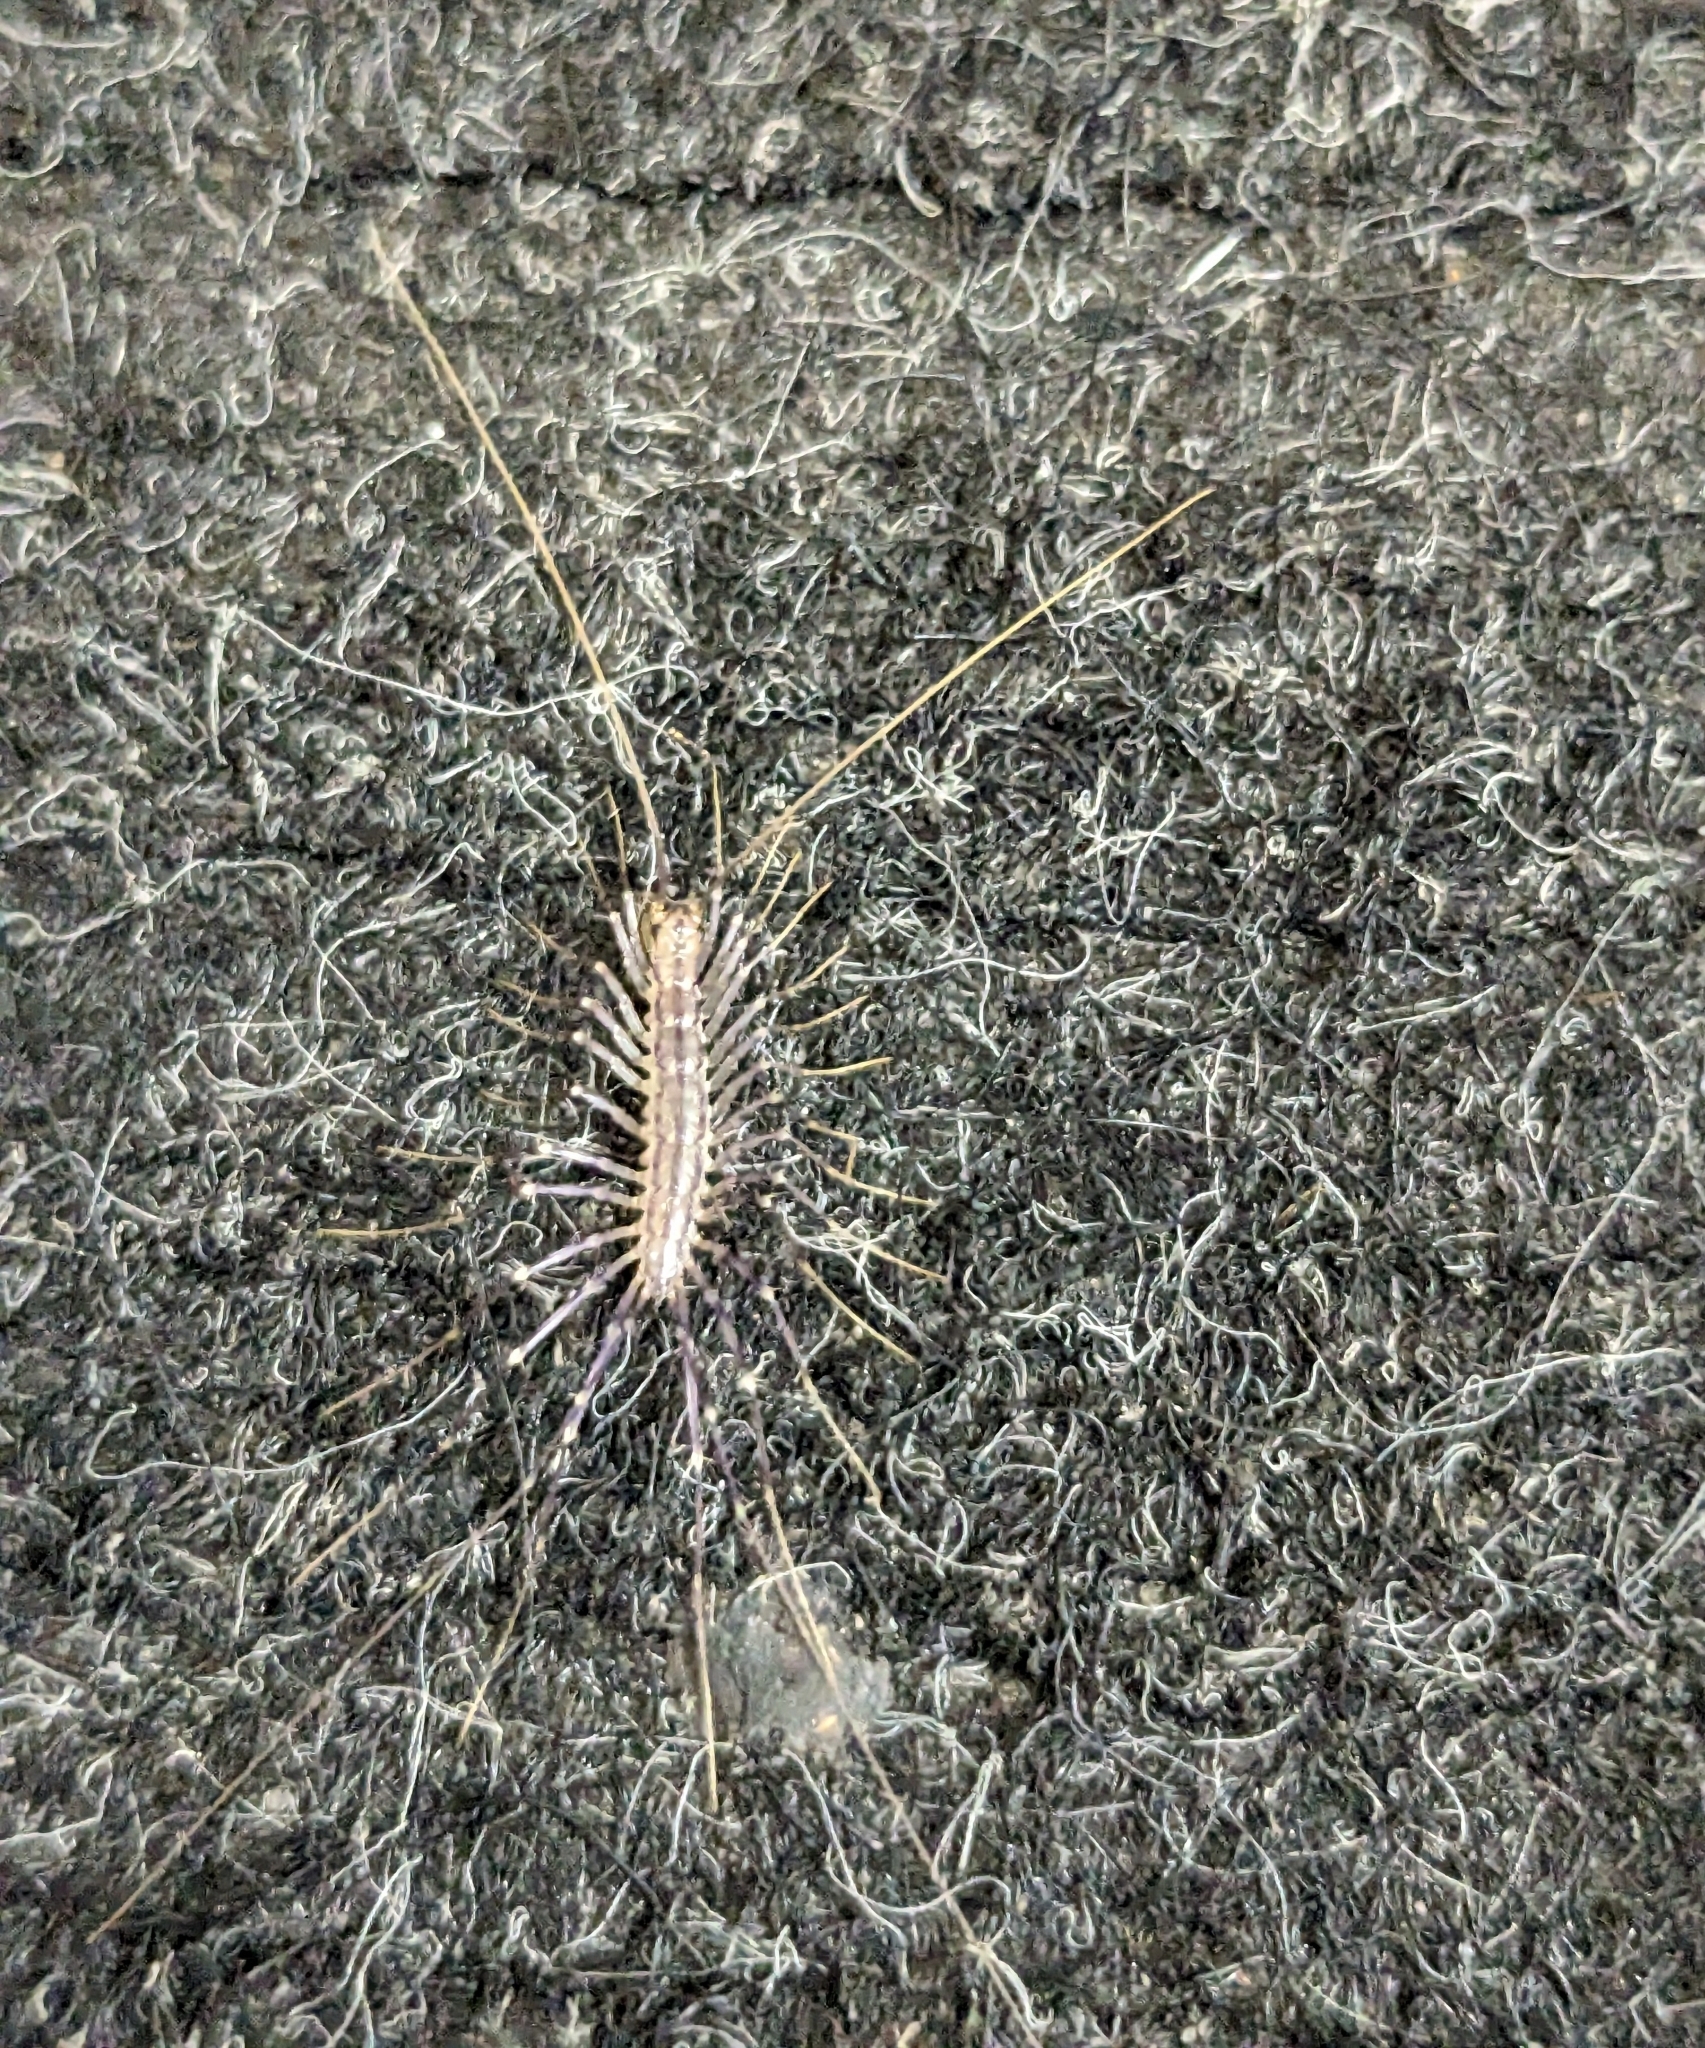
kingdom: Animalia
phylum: Arthropoda
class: Chilopoda
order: Scutigeromorpha
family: Scutigeridae
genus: Scutigera
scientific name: Scutigera coleoptrata
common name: House centipede
